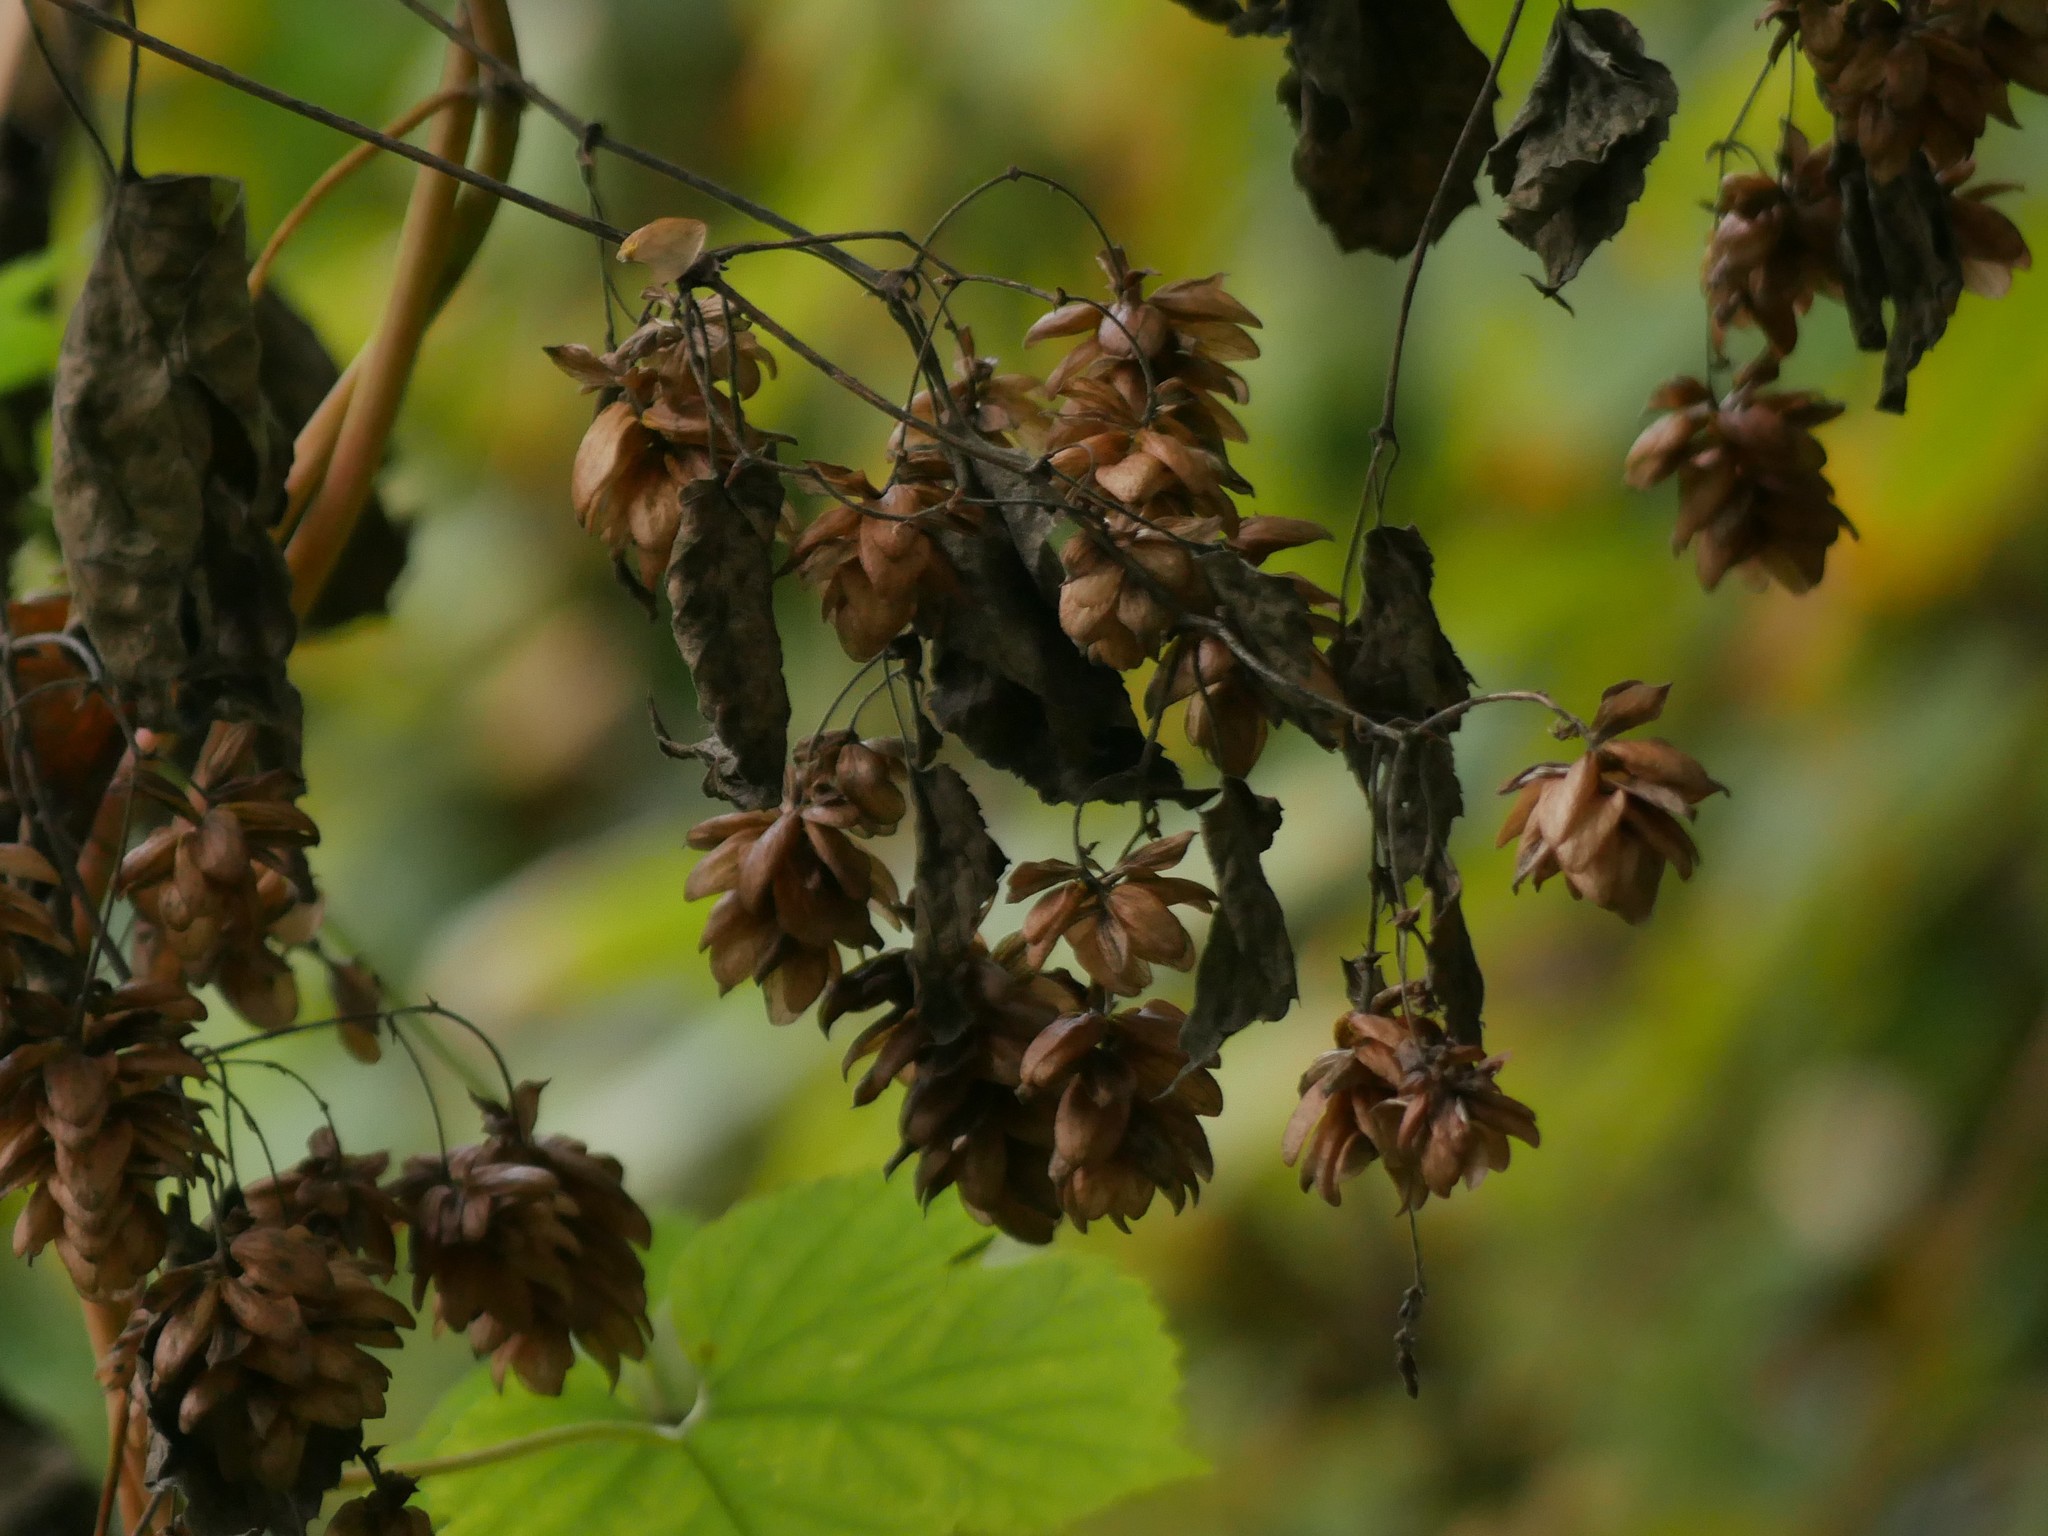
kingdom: Plantae
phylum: Tracheophyta
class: Magnoliopsida
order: Rosales
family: Cannabaceae
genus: Humulus
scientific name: Humulus lupulus
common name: Hop
